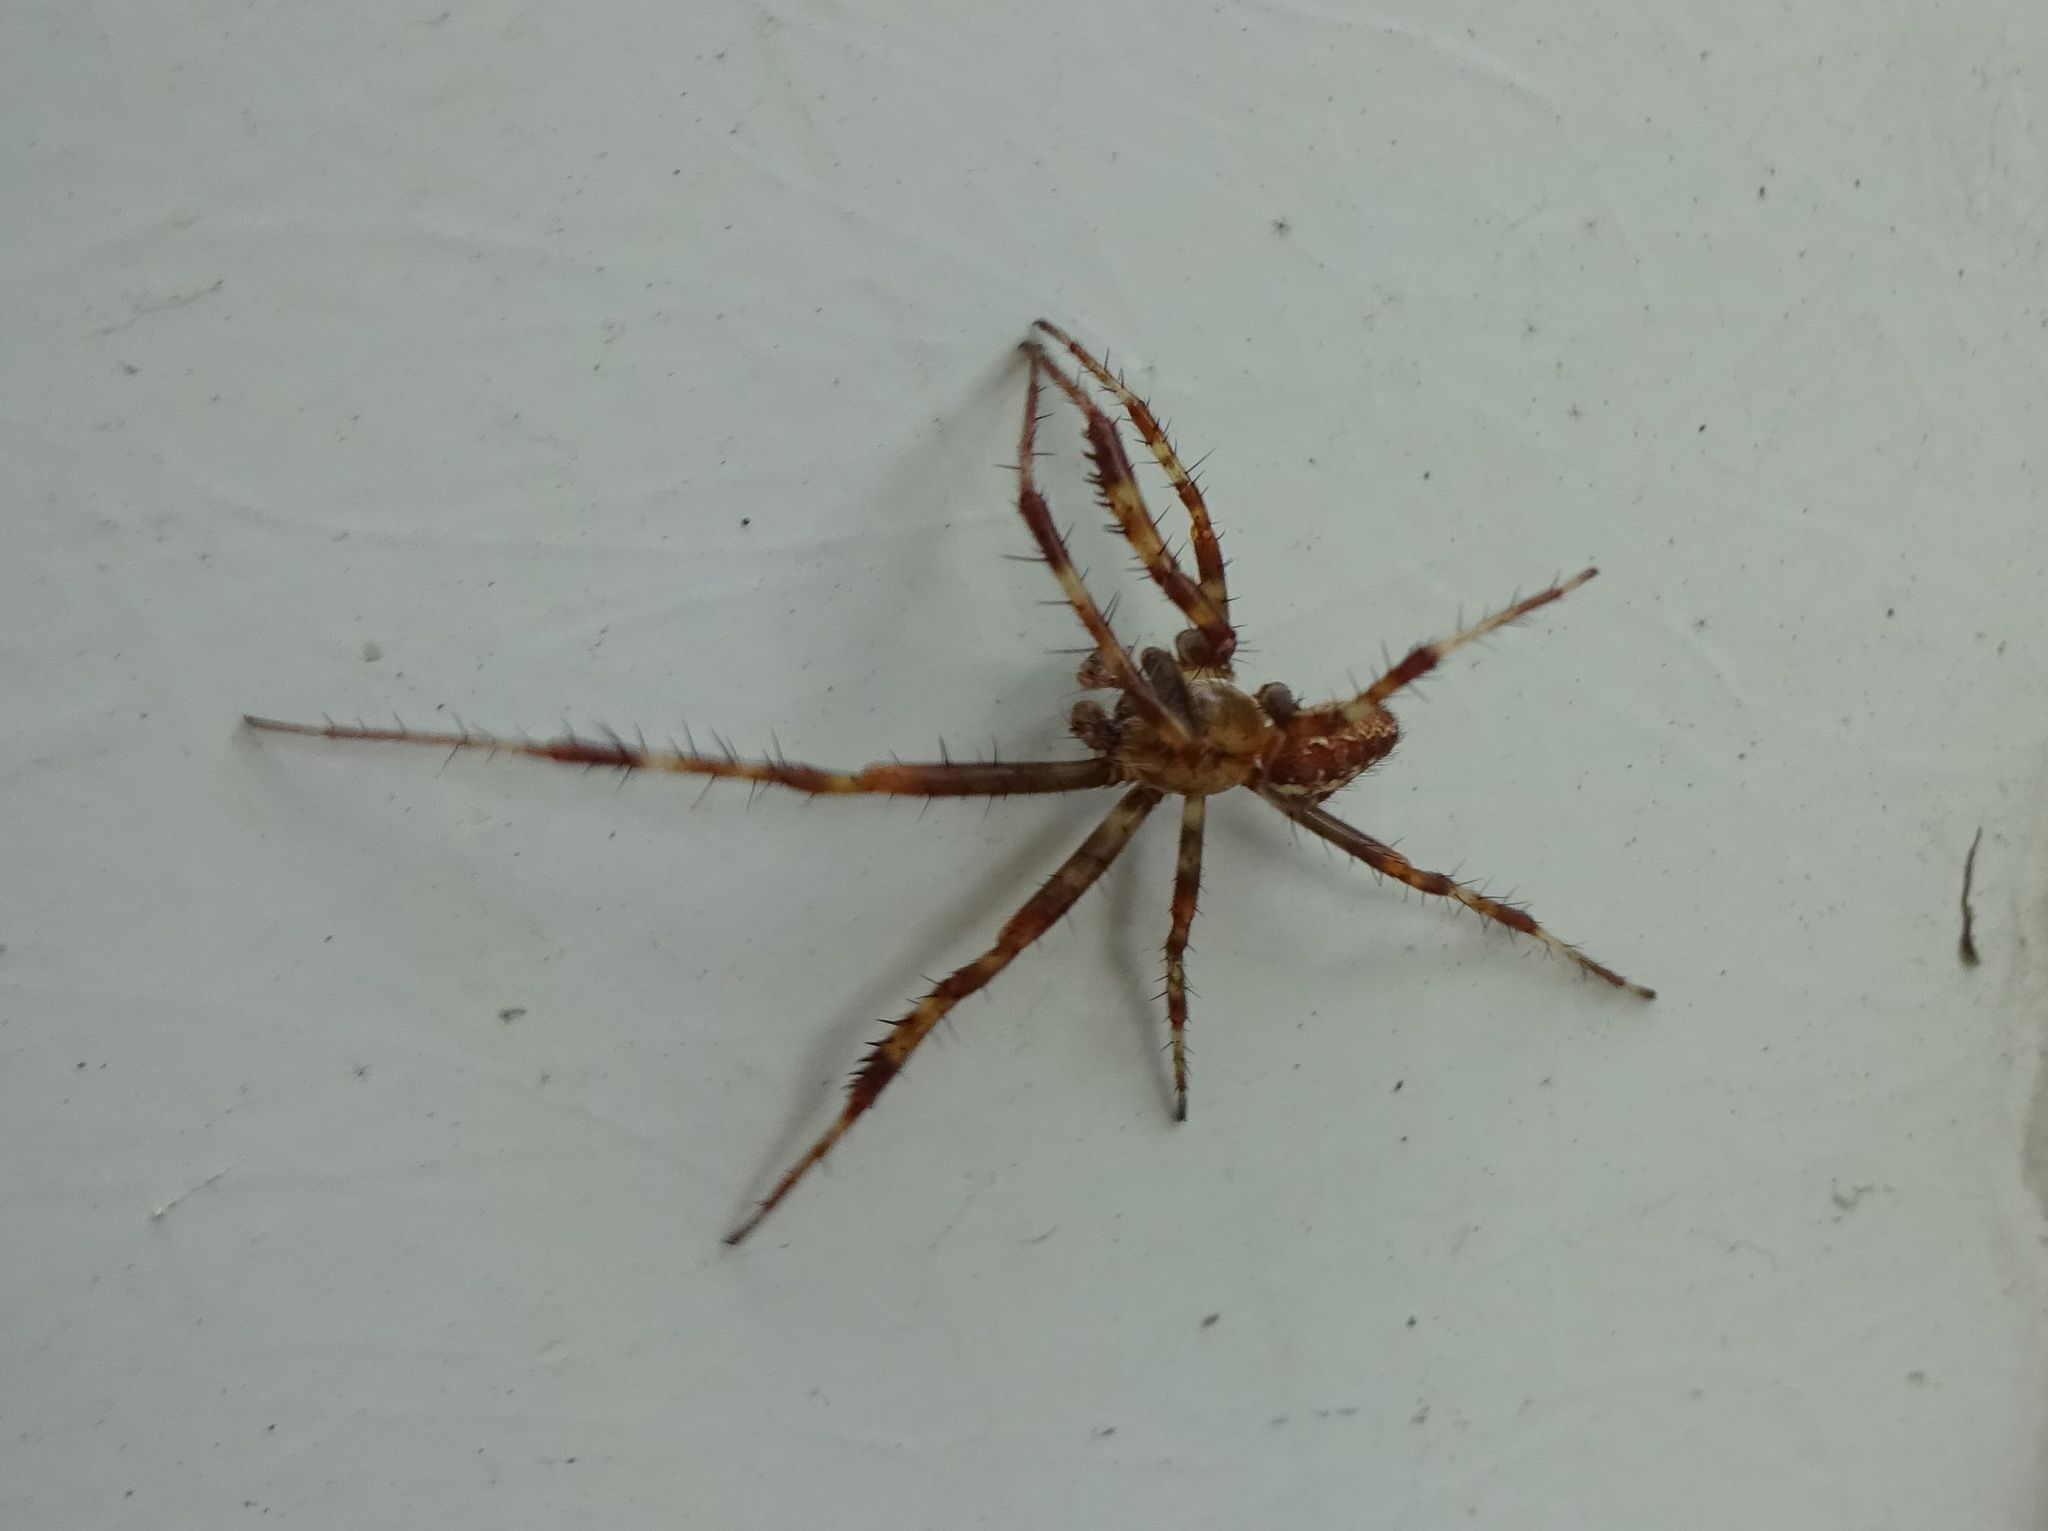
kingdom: Animalia
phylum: Arthropoda
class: Arachnida
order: Araneae
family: Araneidae
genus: Araneus
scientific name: Araneus diadematus
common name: Cross orbweaver
